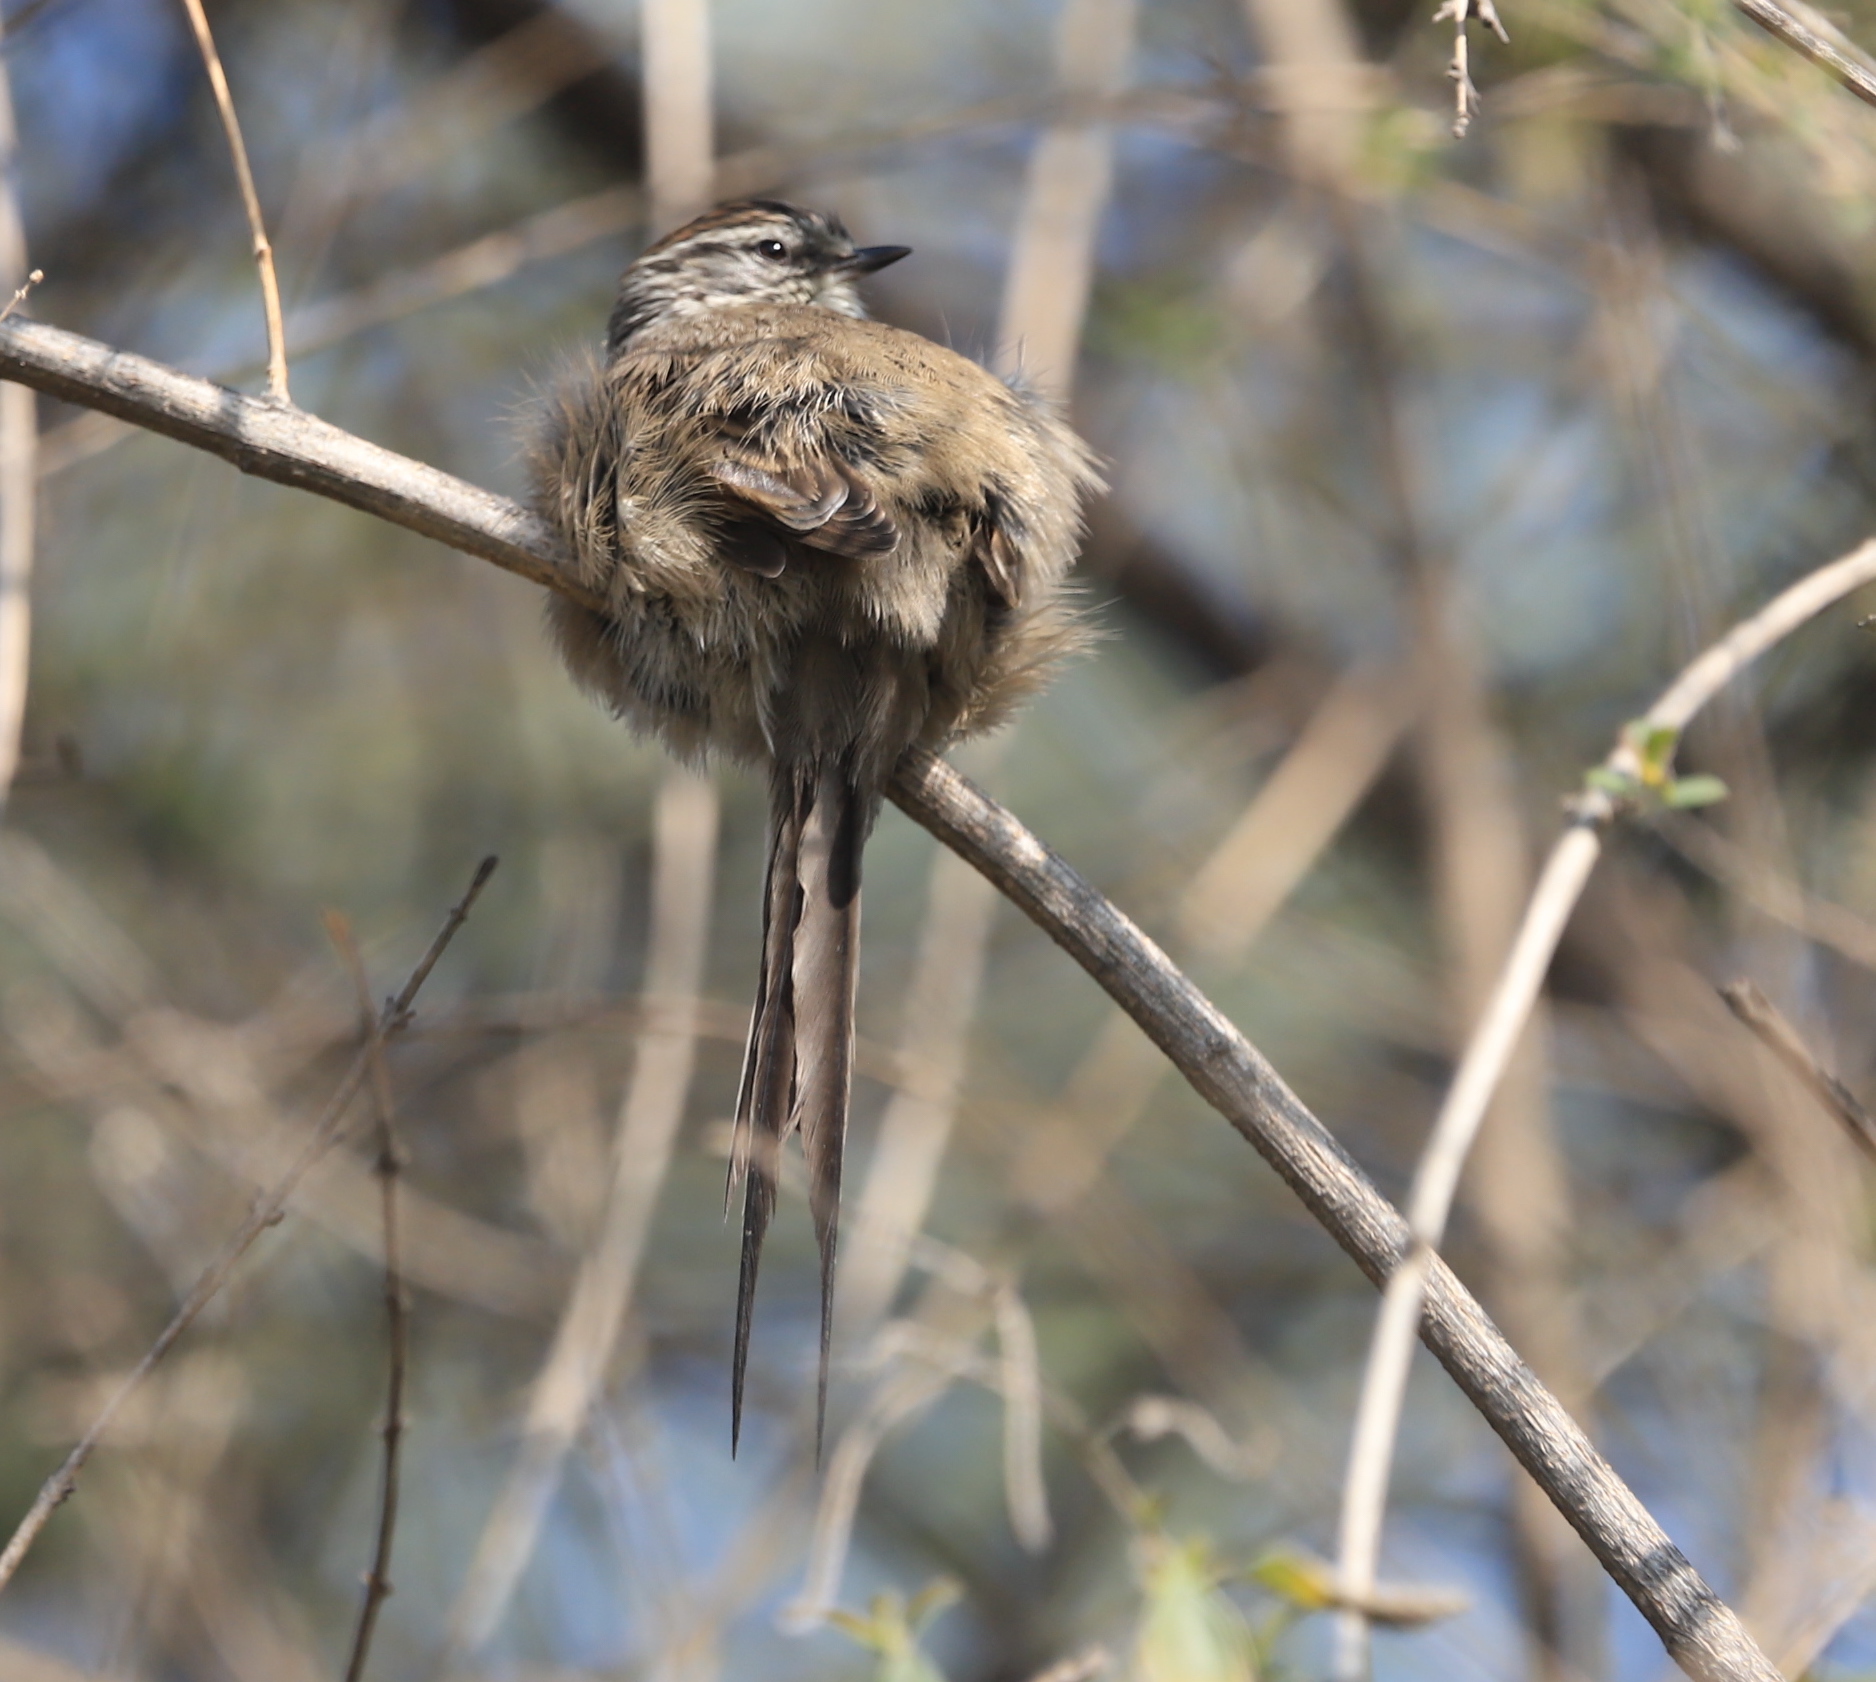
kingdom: Animalia
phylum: Chordata
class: Aves
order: Passeriformes
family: Furnariidae
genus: Leptasthenura
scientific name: Leptasthenura aegithaloides
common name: Plain-mantled tit-spinetail
